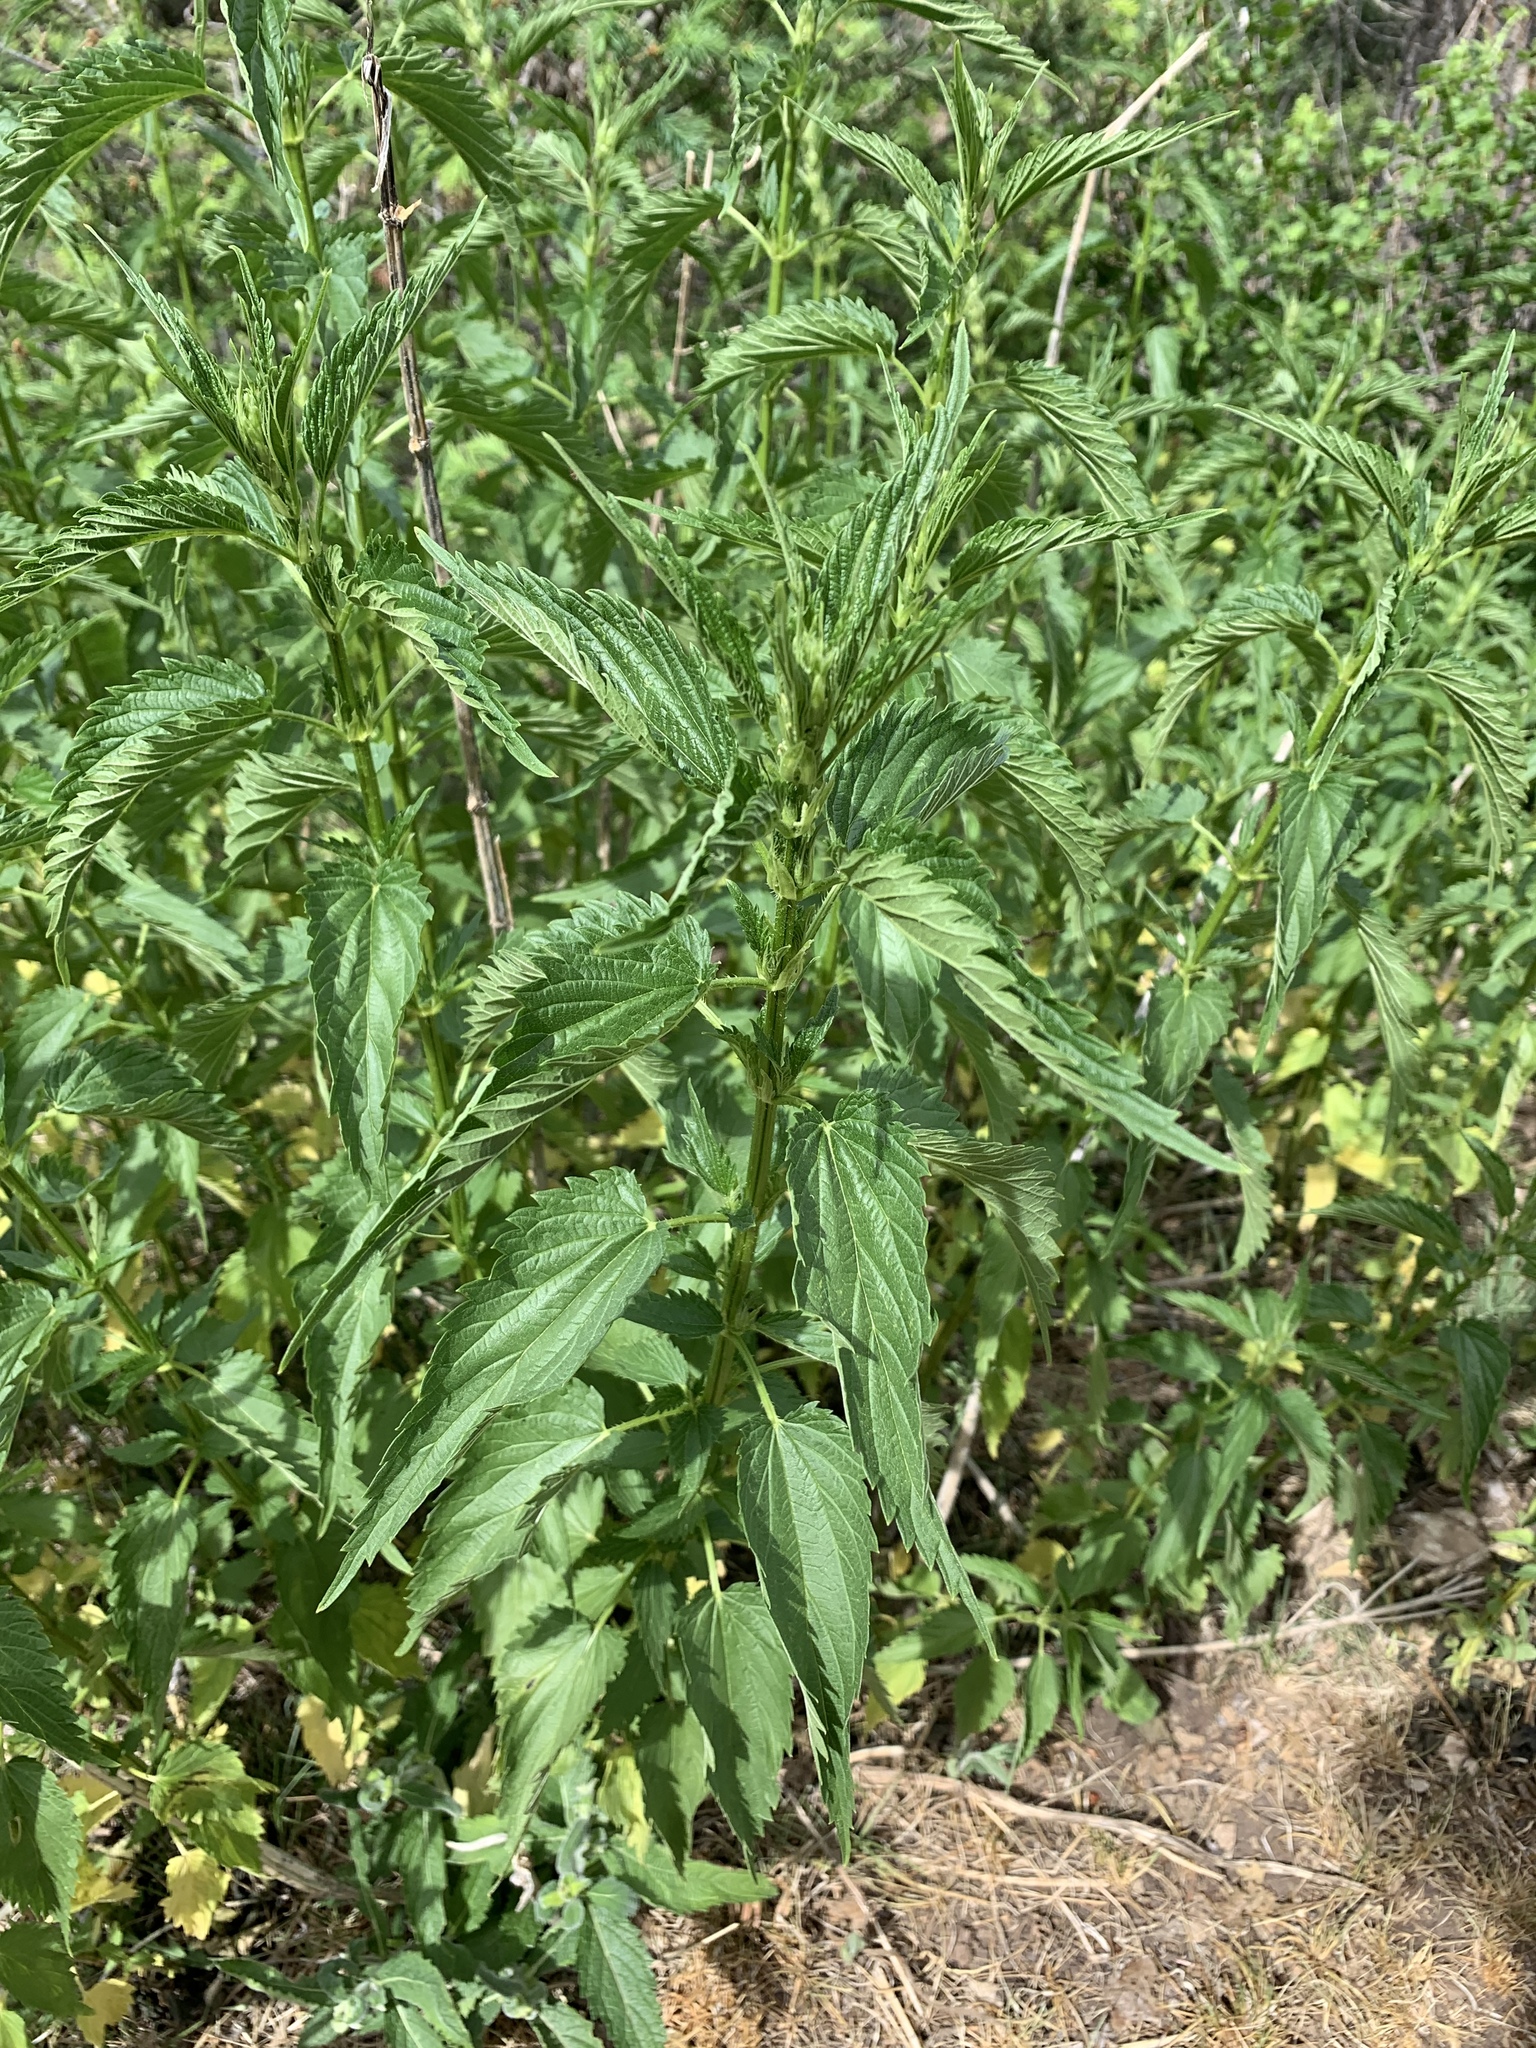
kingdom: Plantae
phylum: Tracheophyta
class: Magnoliopsida
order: Rosales
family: Urticaceae
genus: Urtica
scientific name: Urtica gracilis
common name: Slender stinging nettle
